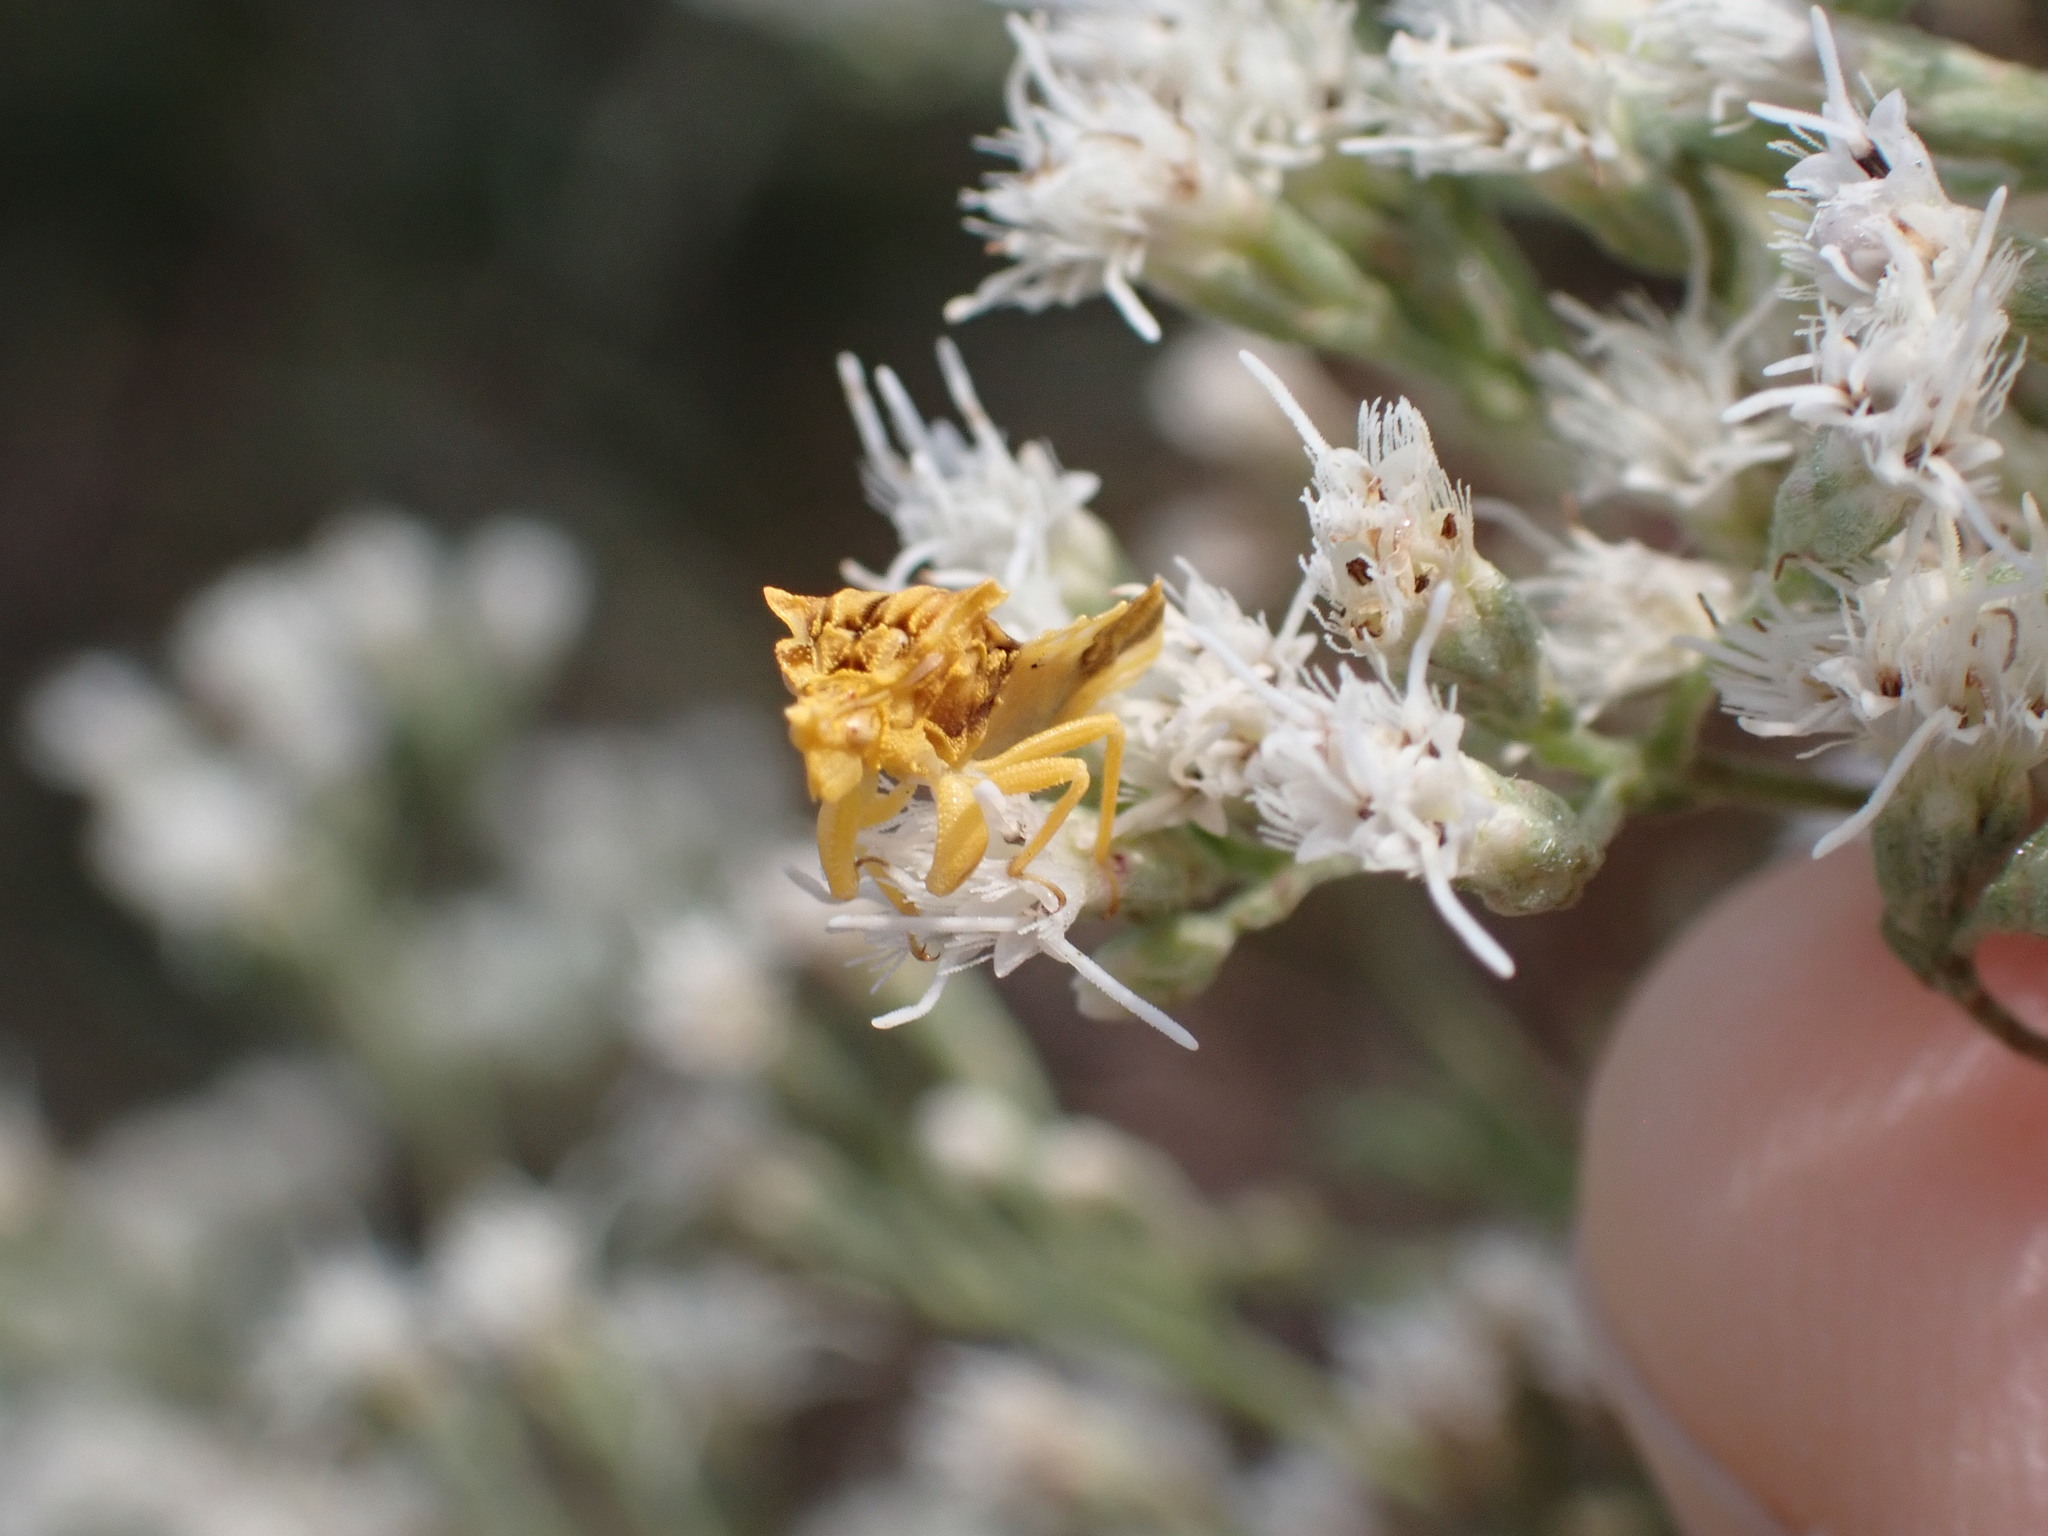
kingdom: Animalia
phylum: Arthropoda
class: Insecta
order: Hemiptera
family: Reduviidae
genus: Phymata
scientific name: Phymata fasciata
